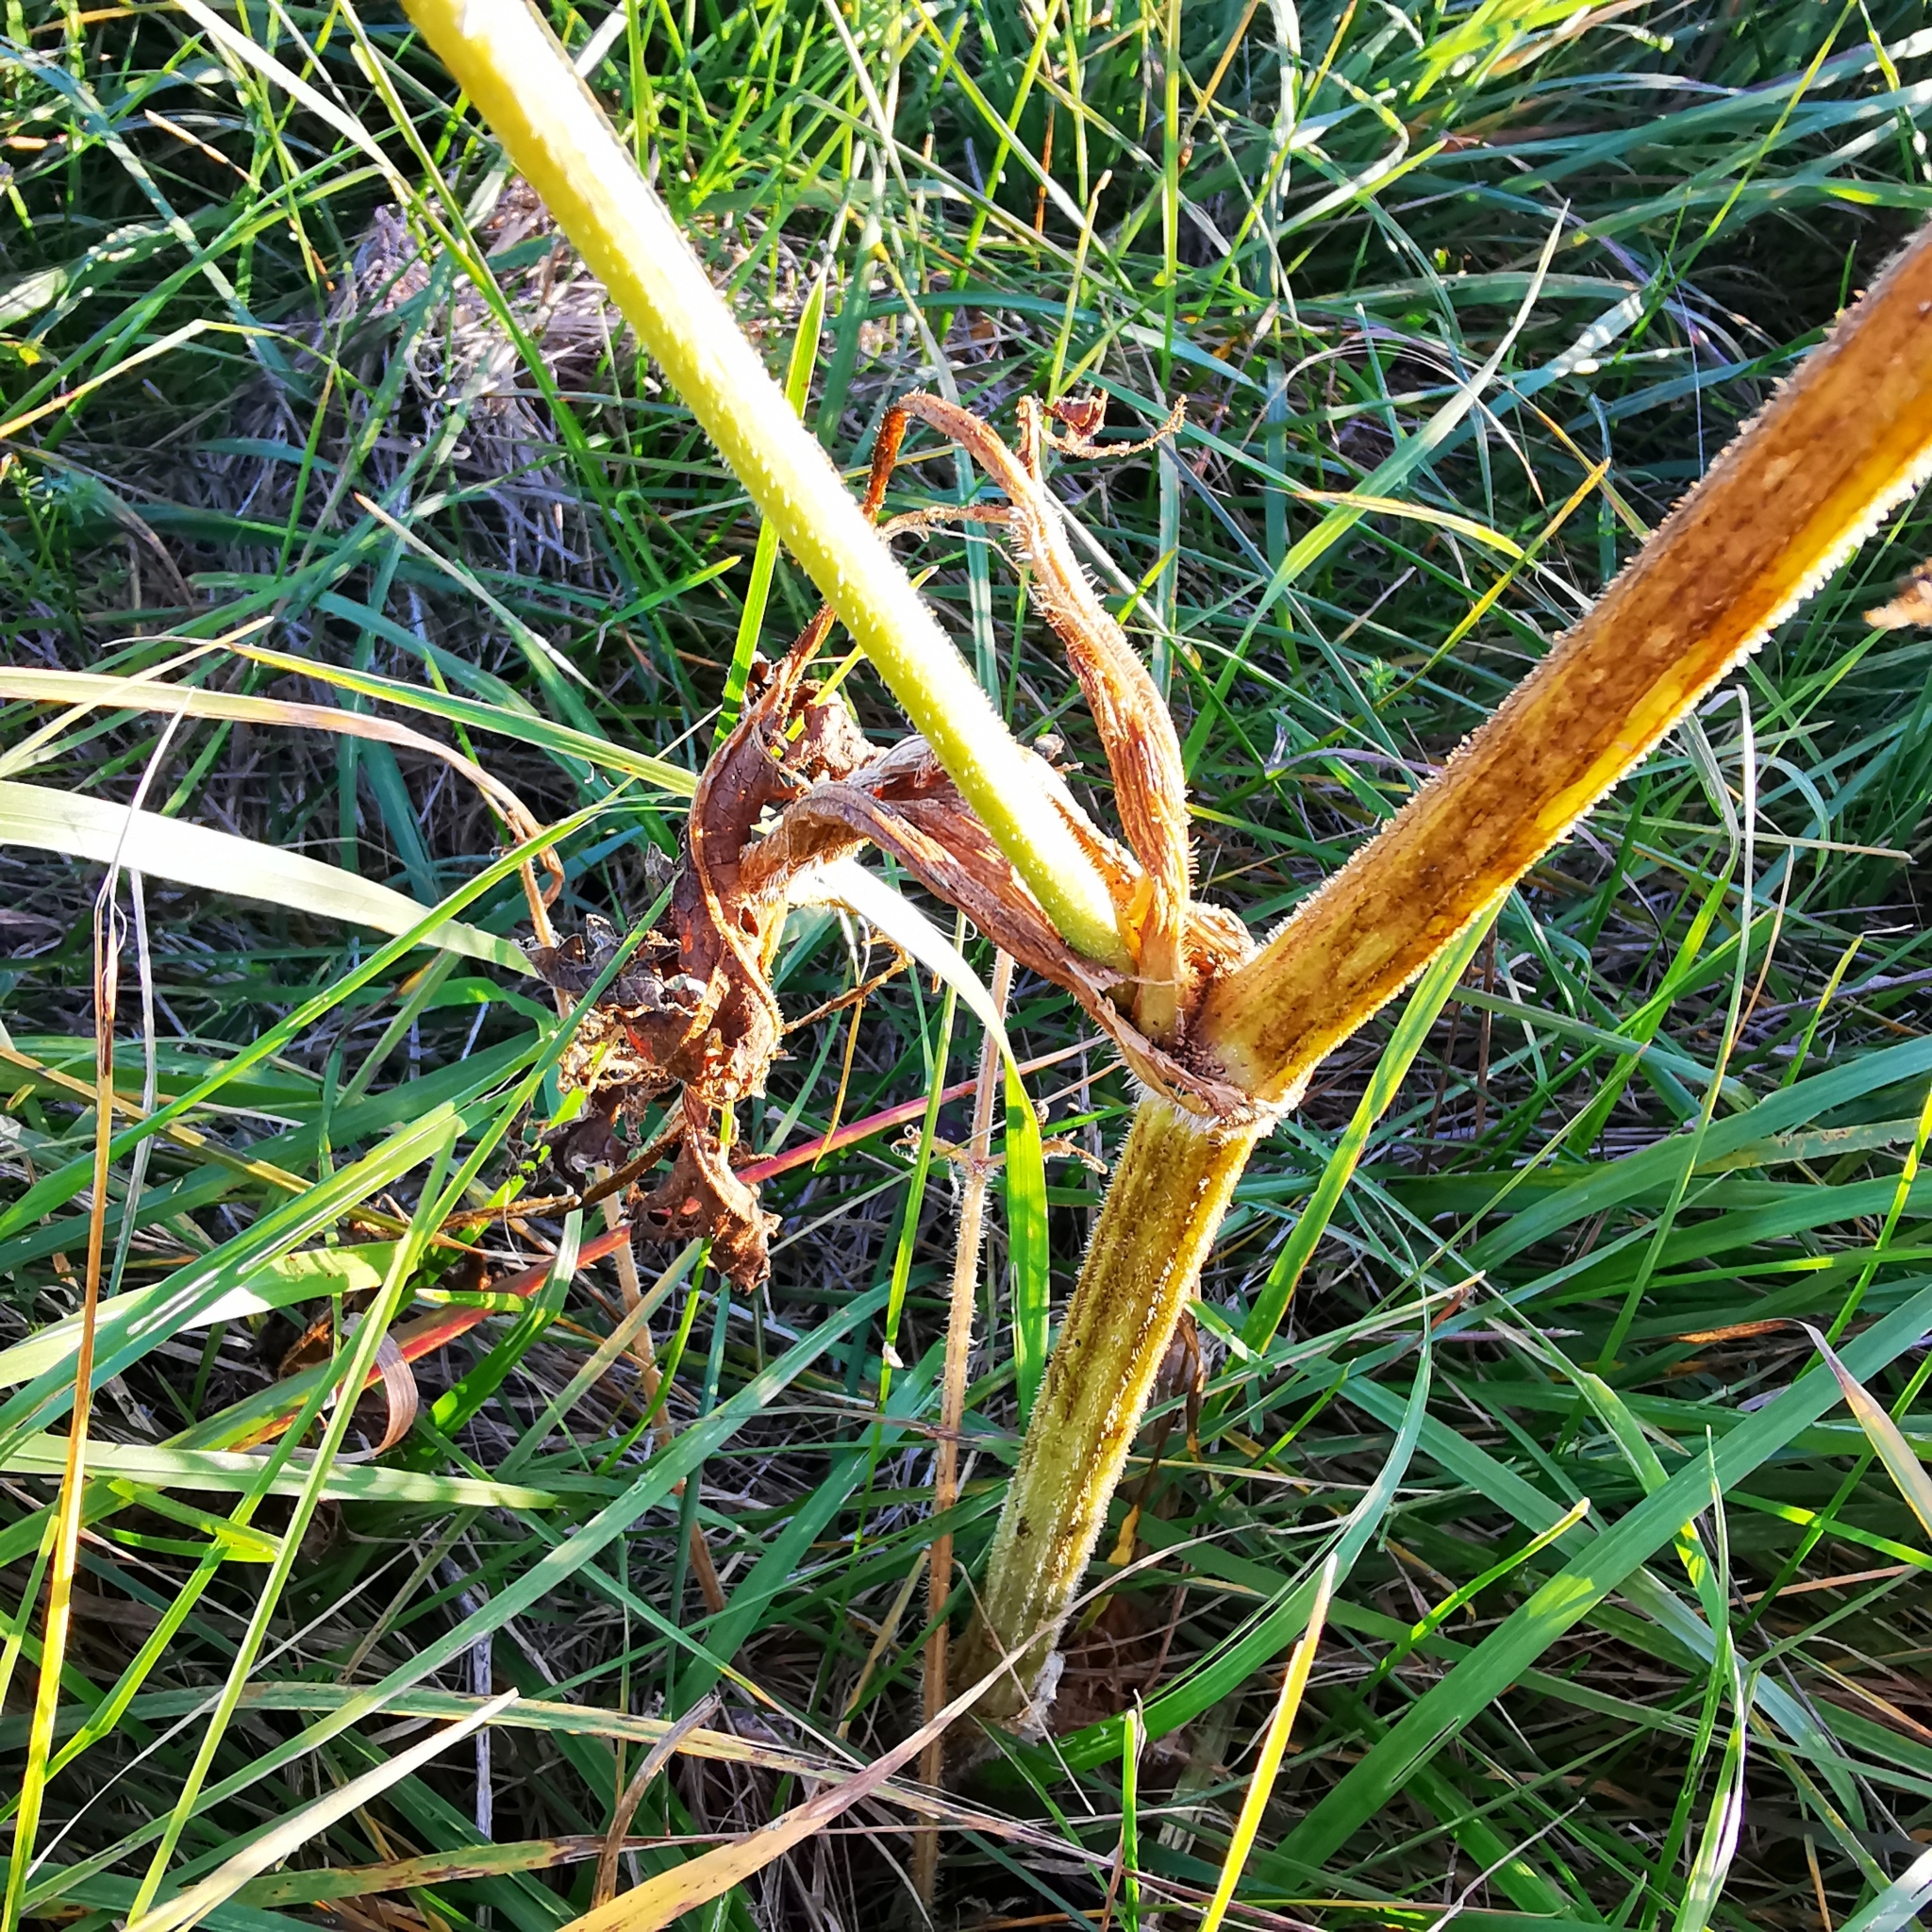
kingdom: Plantae
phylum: Tracheophyta
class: Magnoliopsida
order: Apiales
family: Apiaceae
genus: Heracleum
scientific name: Heracleum sphondylium
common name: Hogweed
